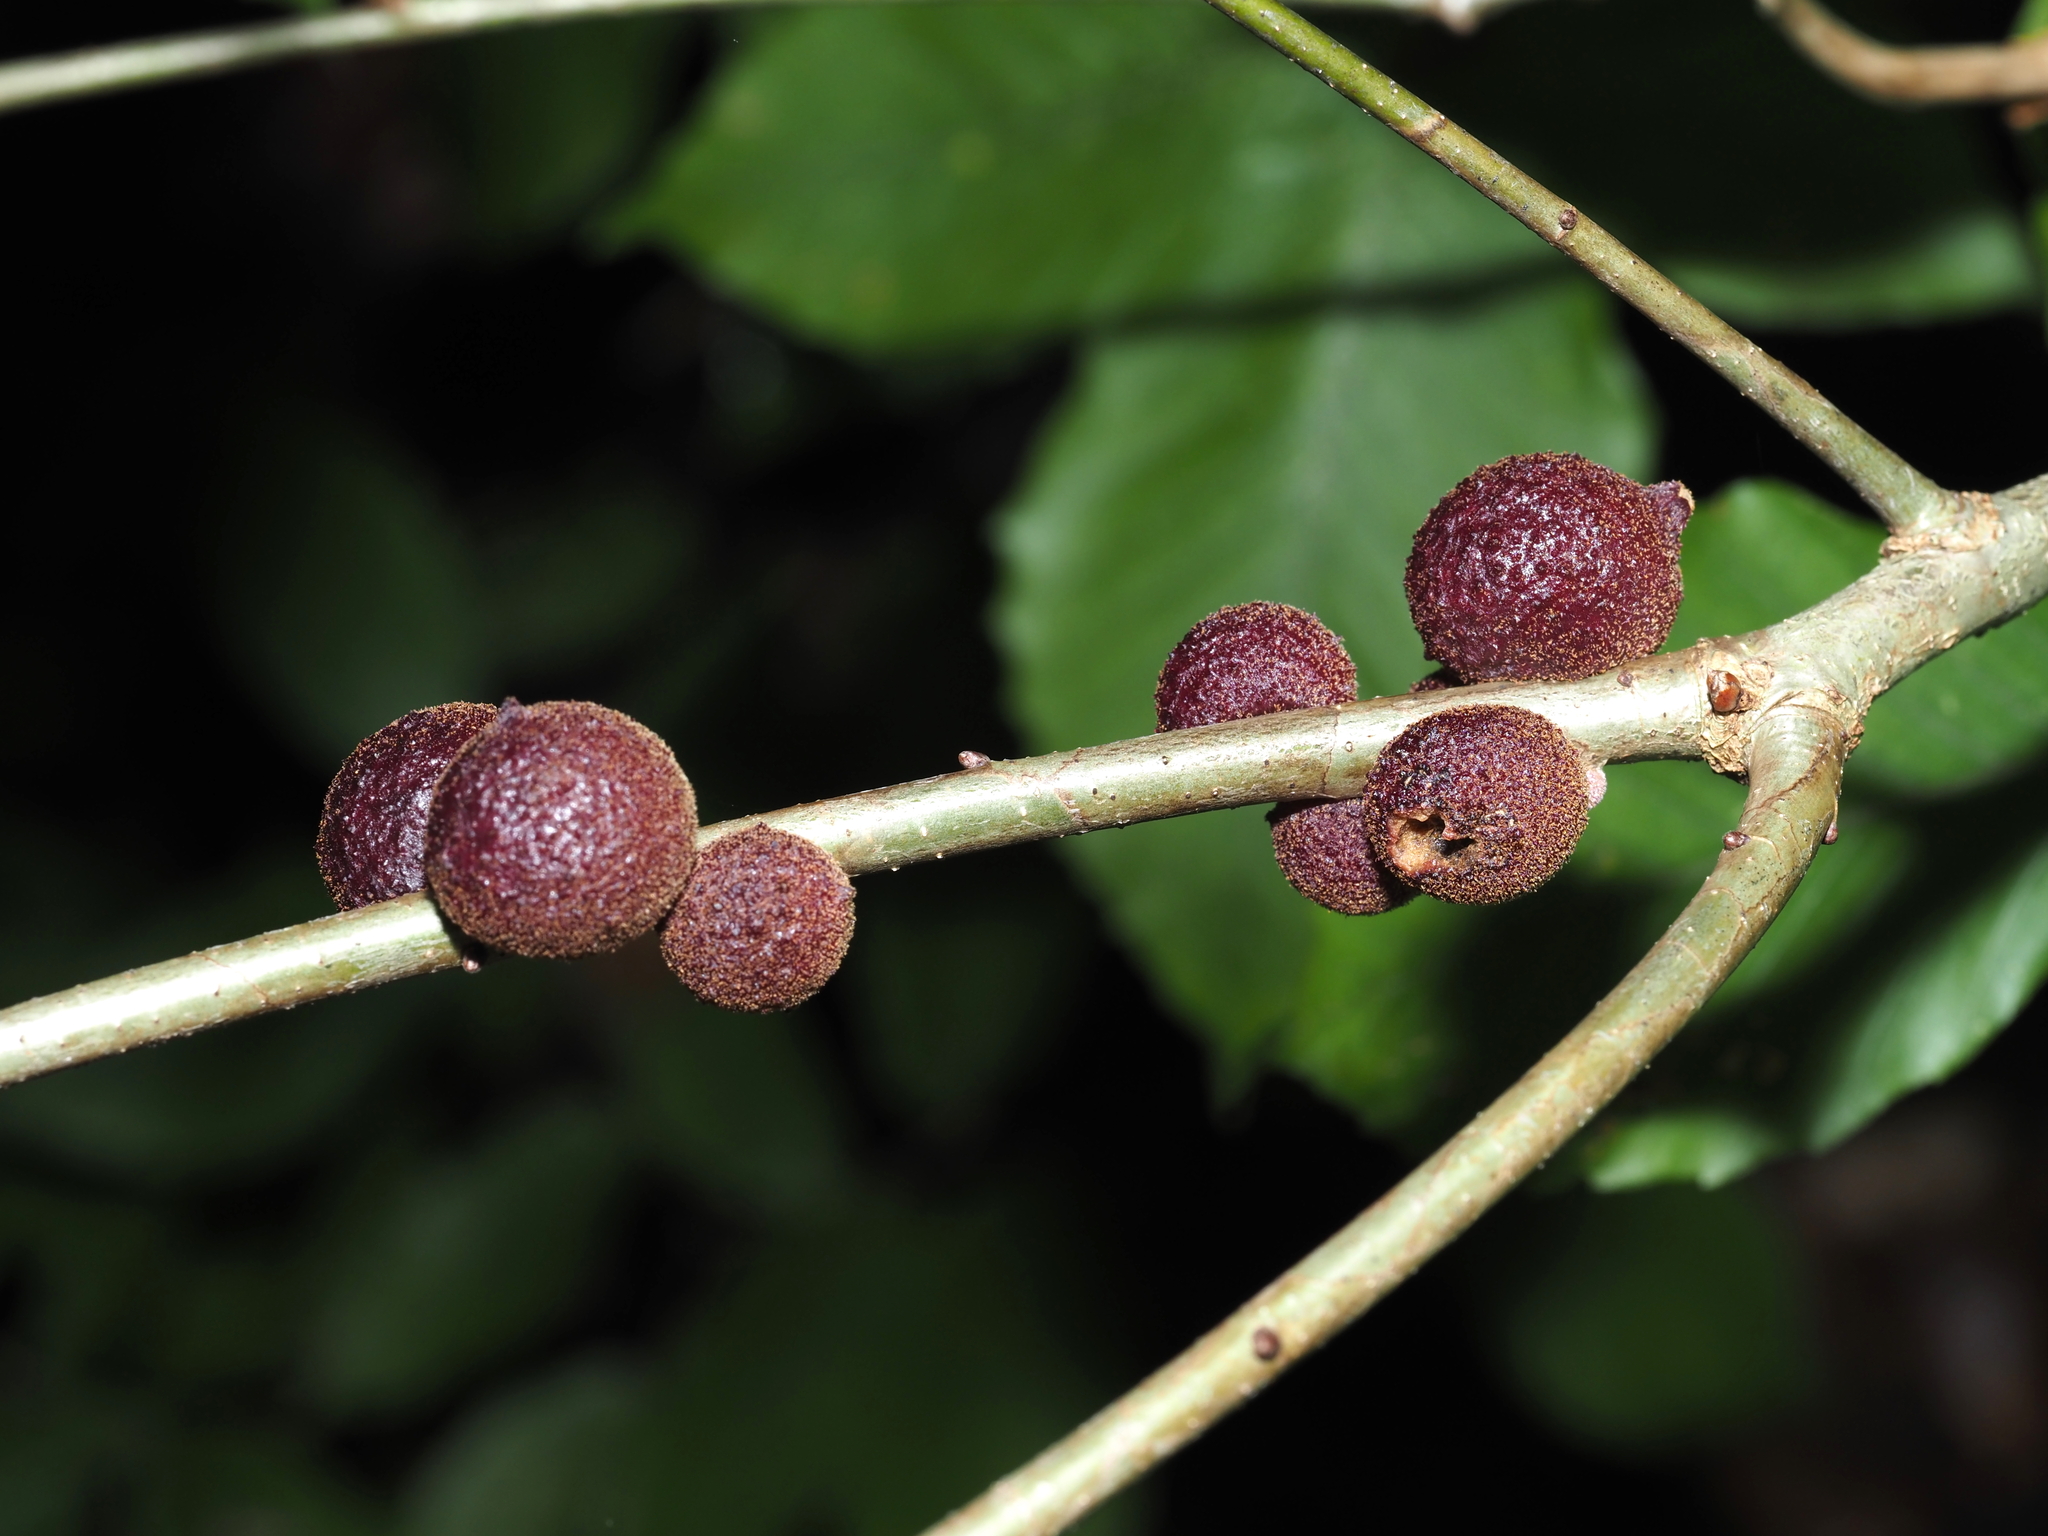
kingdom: Animalia
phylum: Arthropoda
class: Insecta
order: Hymenoptera
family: Cynipidae
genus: Disholcaspis
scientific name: Disholcaspis
